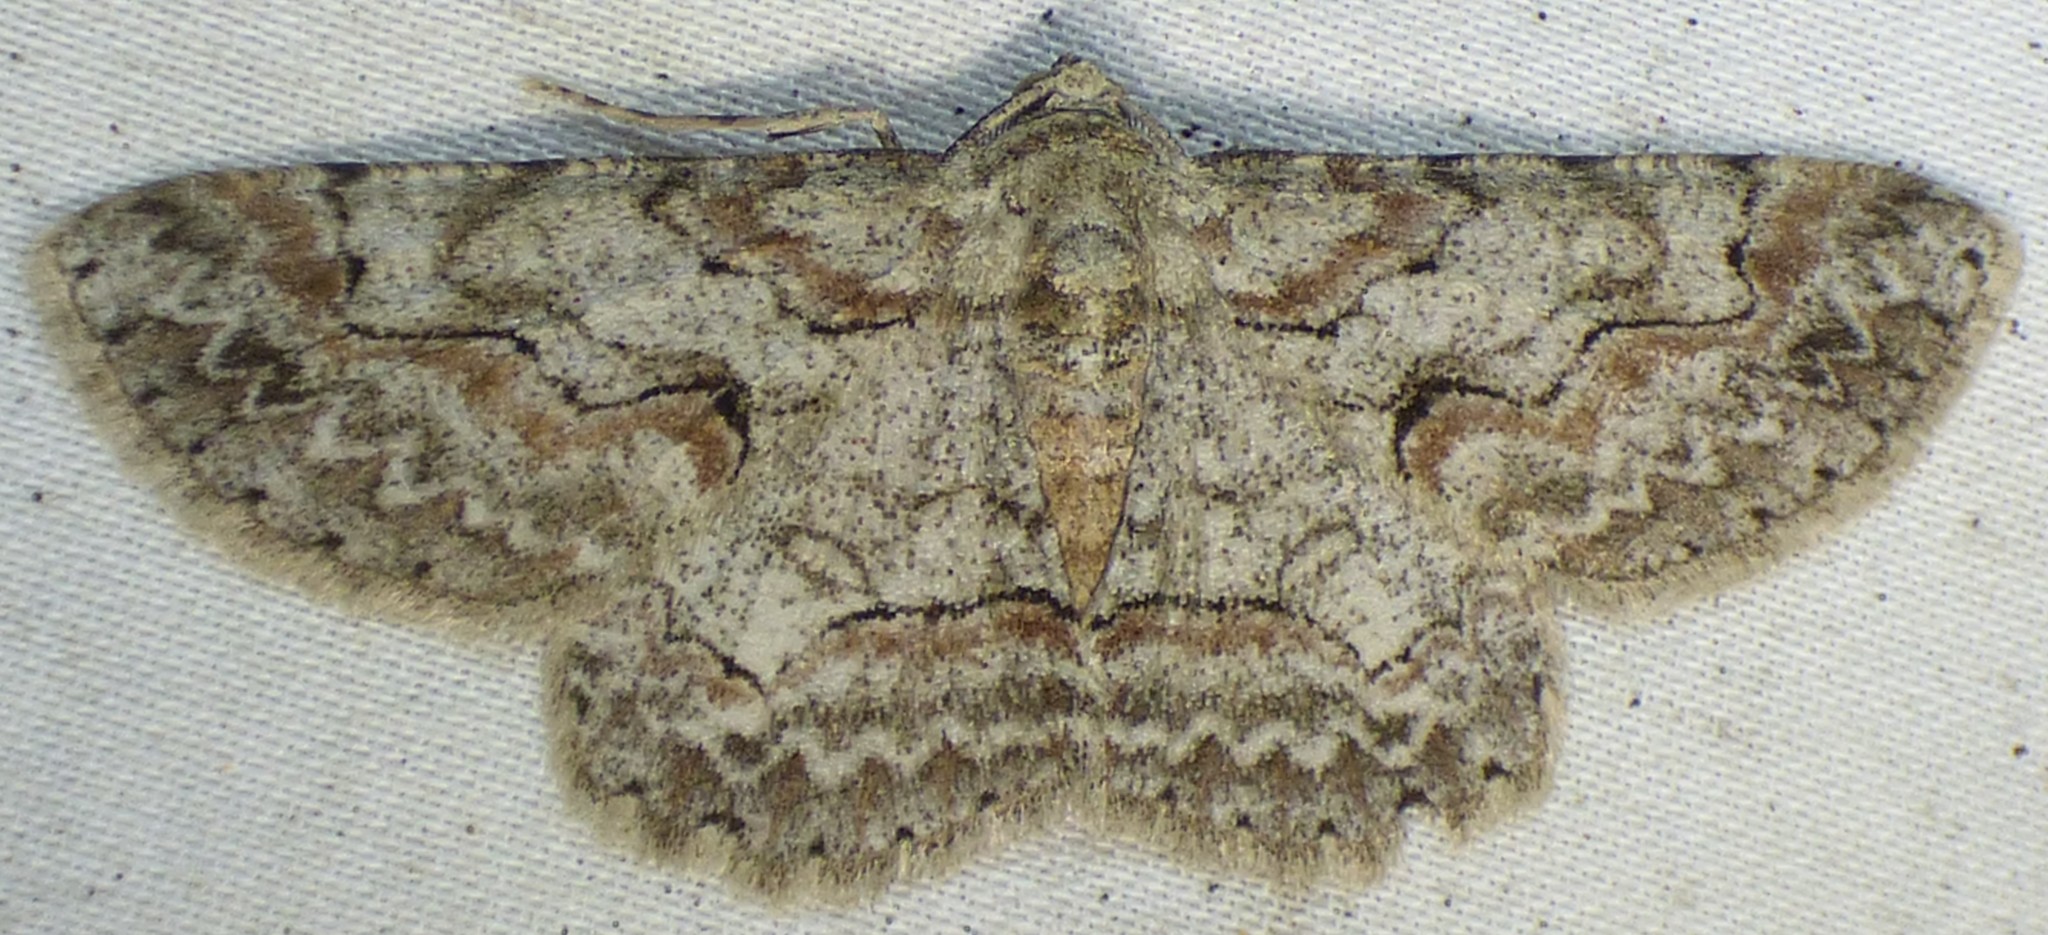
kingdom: Animalia
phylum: Arthropoda
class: Insecta
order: Lepidoptera
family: Geometridae
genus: Iridopsis
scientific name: Iridopsis defectaria
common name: Brown-shaded gray
